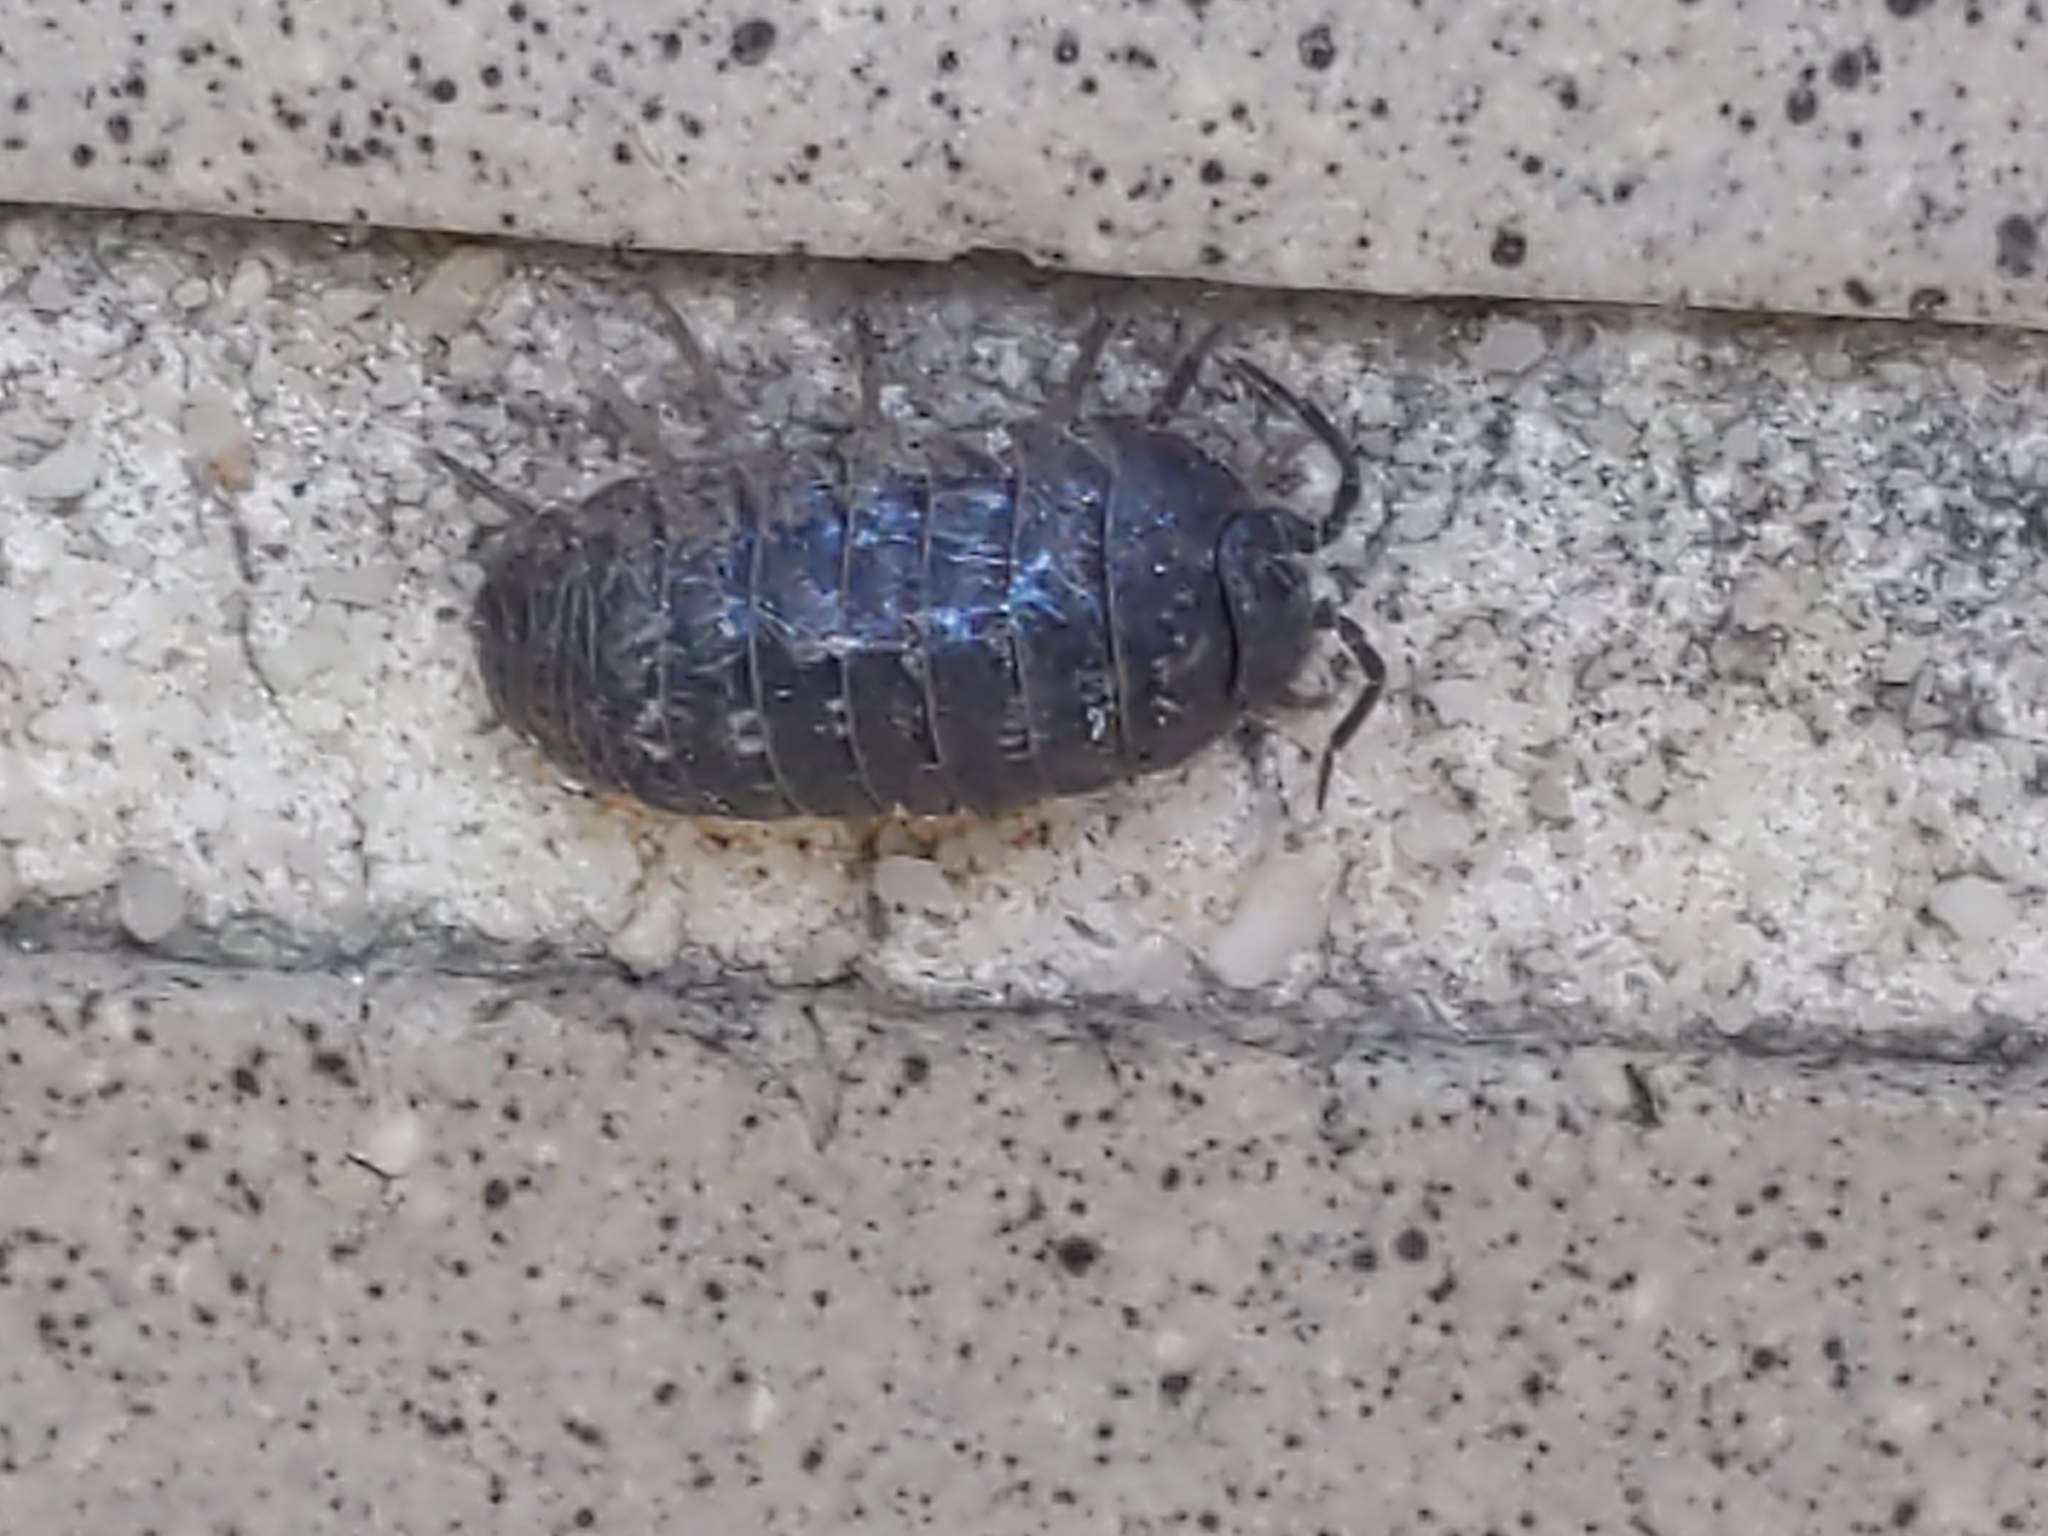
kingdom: Animalia
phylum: Arthropoda
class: Malacostraca
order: Isopoda
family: Armadillidiidae
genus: Armadillidium
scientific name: Armadillidium vulgare
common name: Common pill woodlouse
